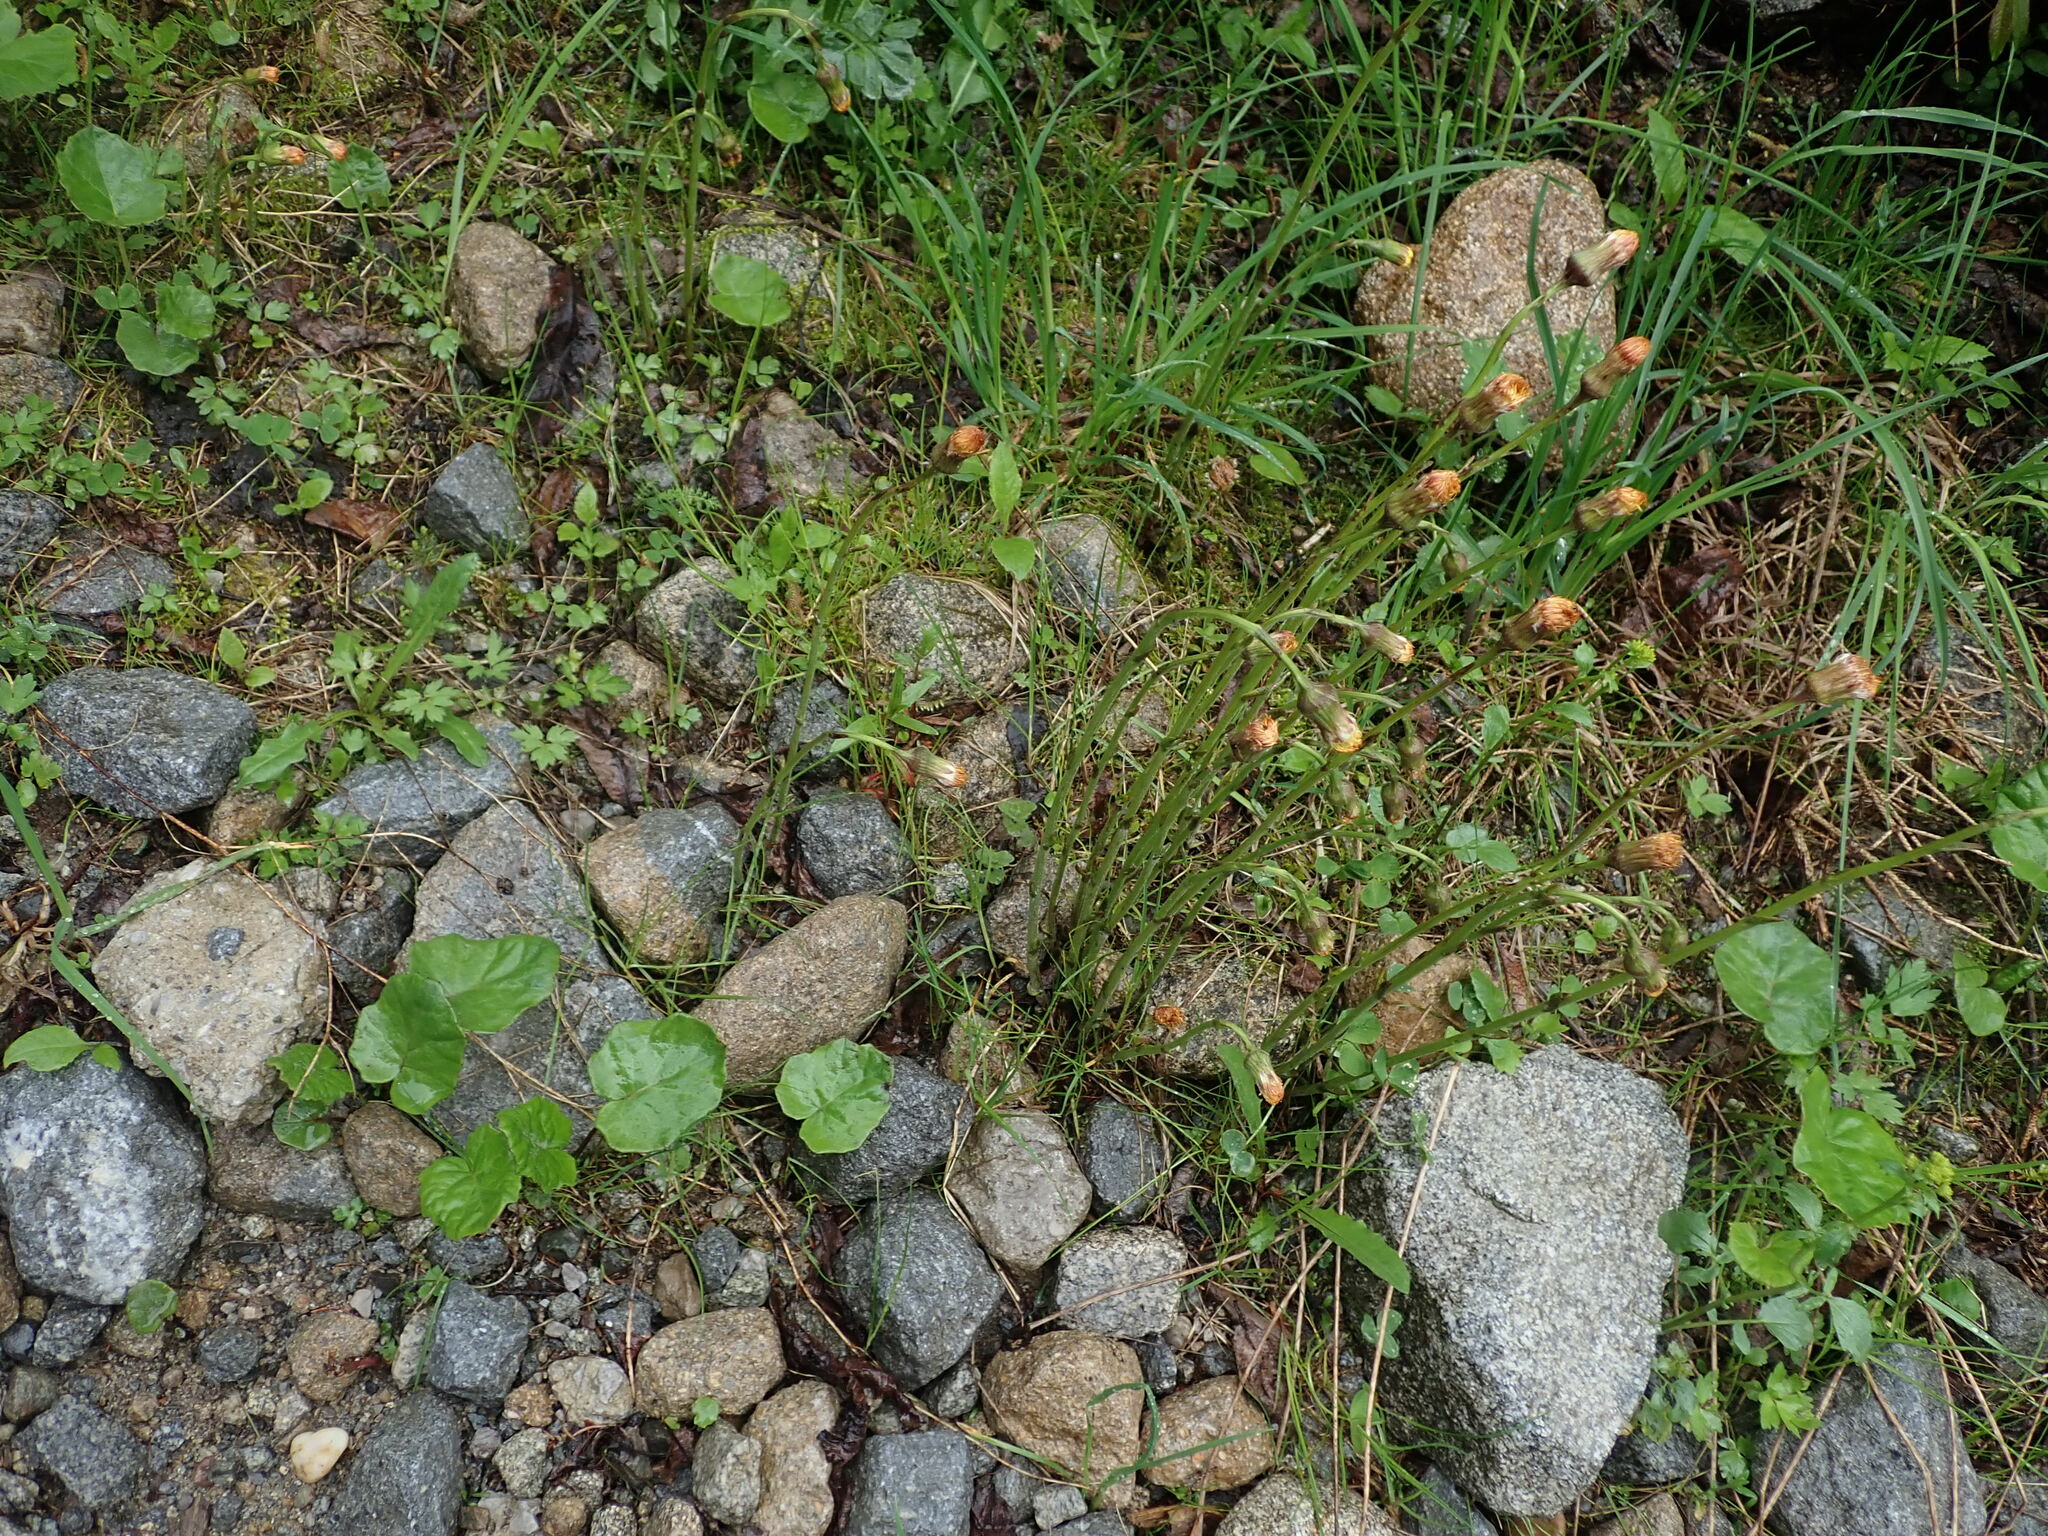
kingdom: Plantae
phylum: Tracheophyta
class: Magnoliopsida
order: Asterales
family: Asteraceae
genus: Tussilago
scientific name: Tussilago farfara
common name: Coltsfoot
